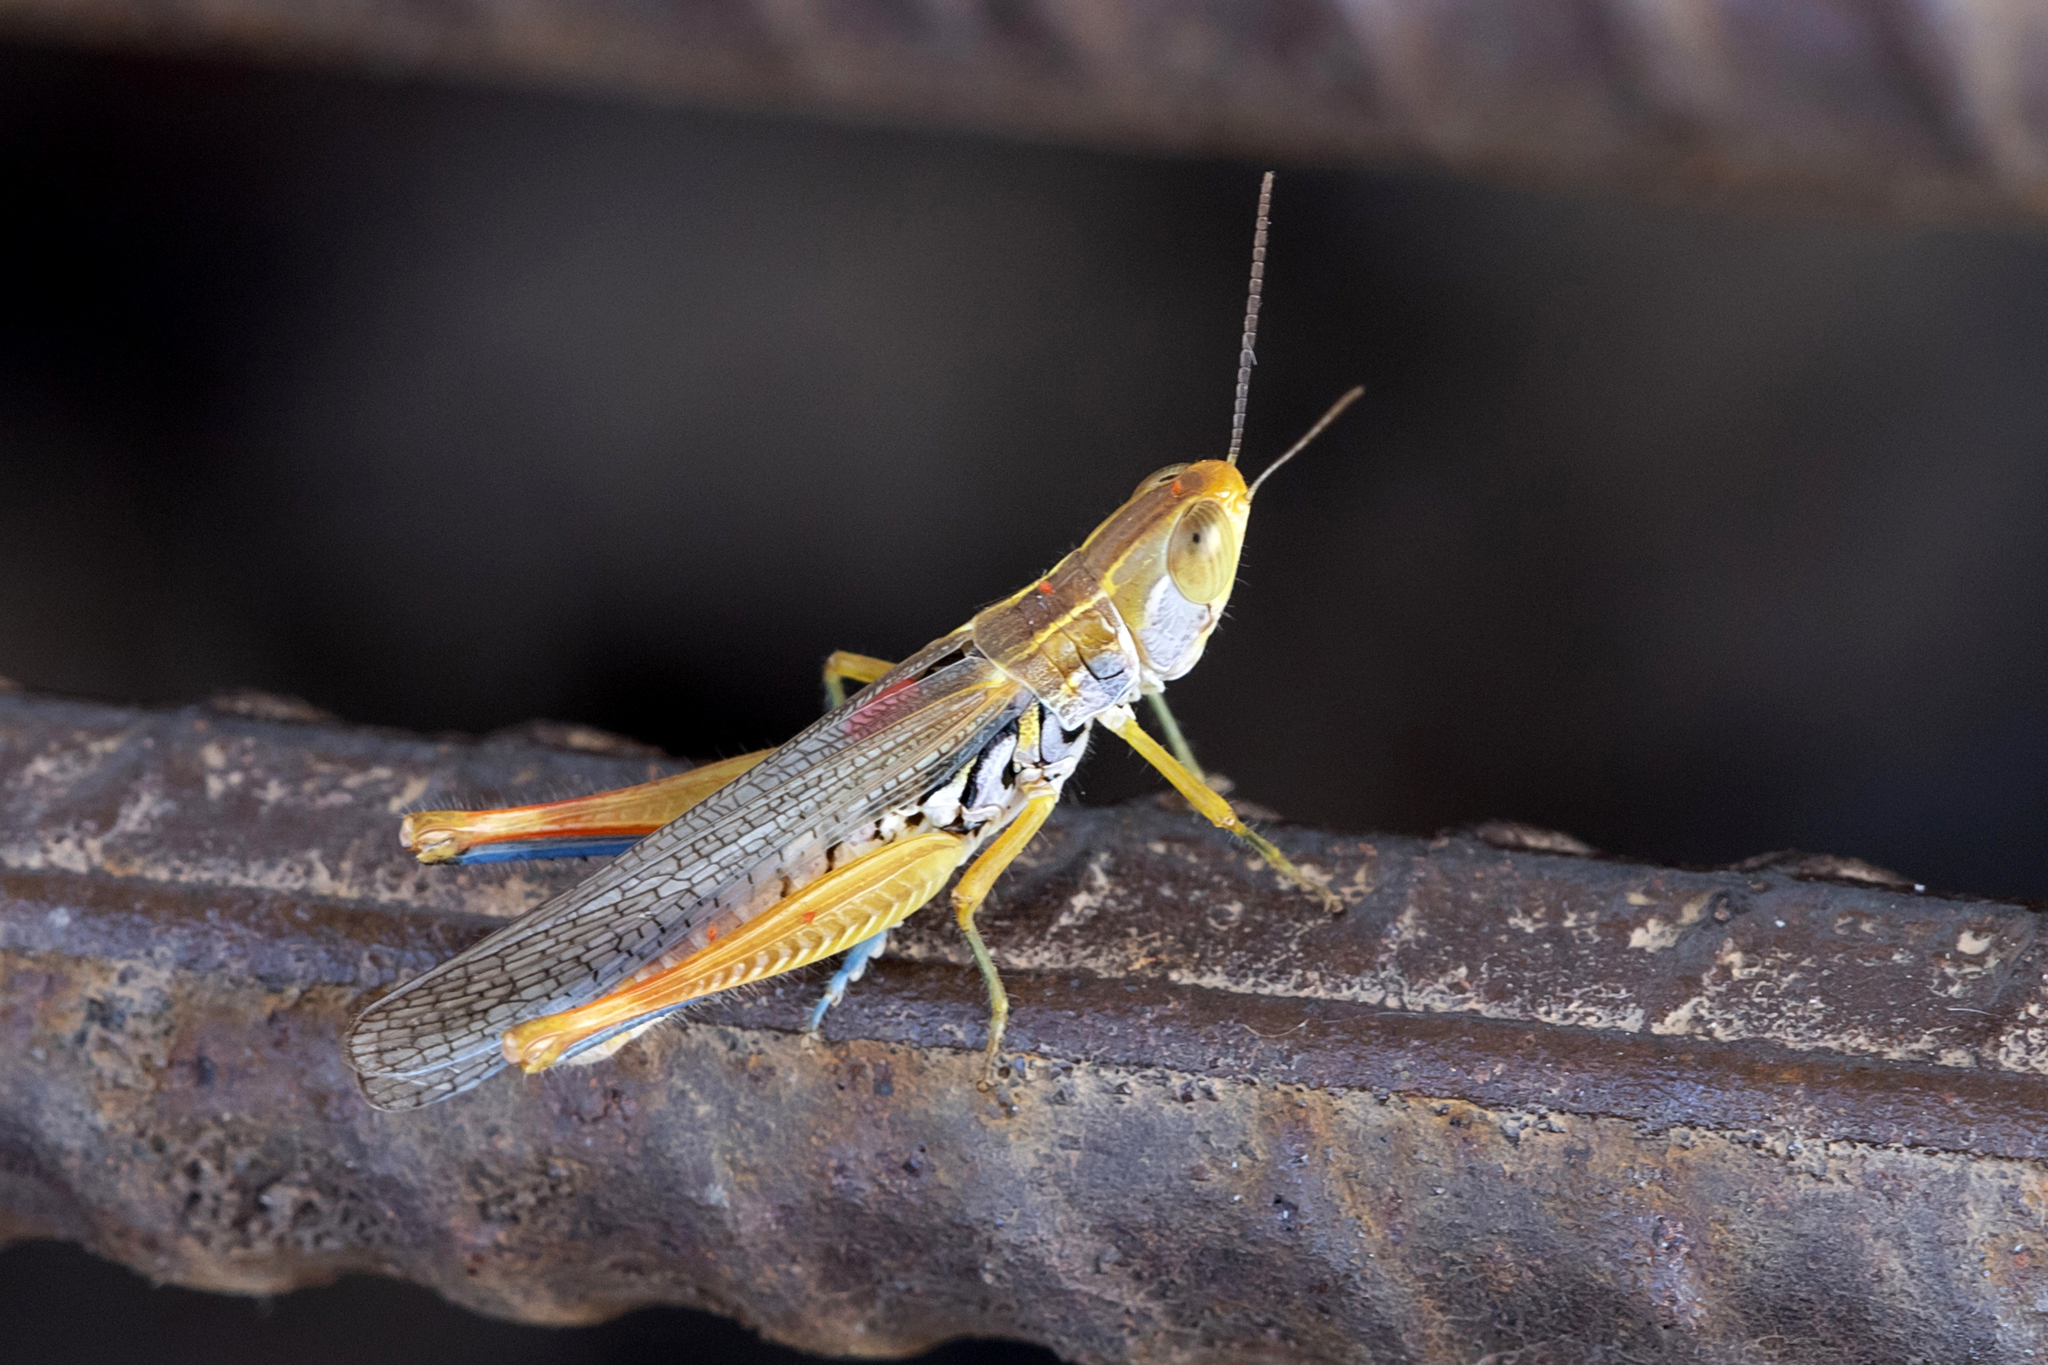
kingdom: Animalia
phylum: Arthropoda
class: Insecta
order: Orthoptera
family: Acrididae
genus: Macrotona
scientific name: Macrotona curvicostalis
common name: Red-thighed macrotona
